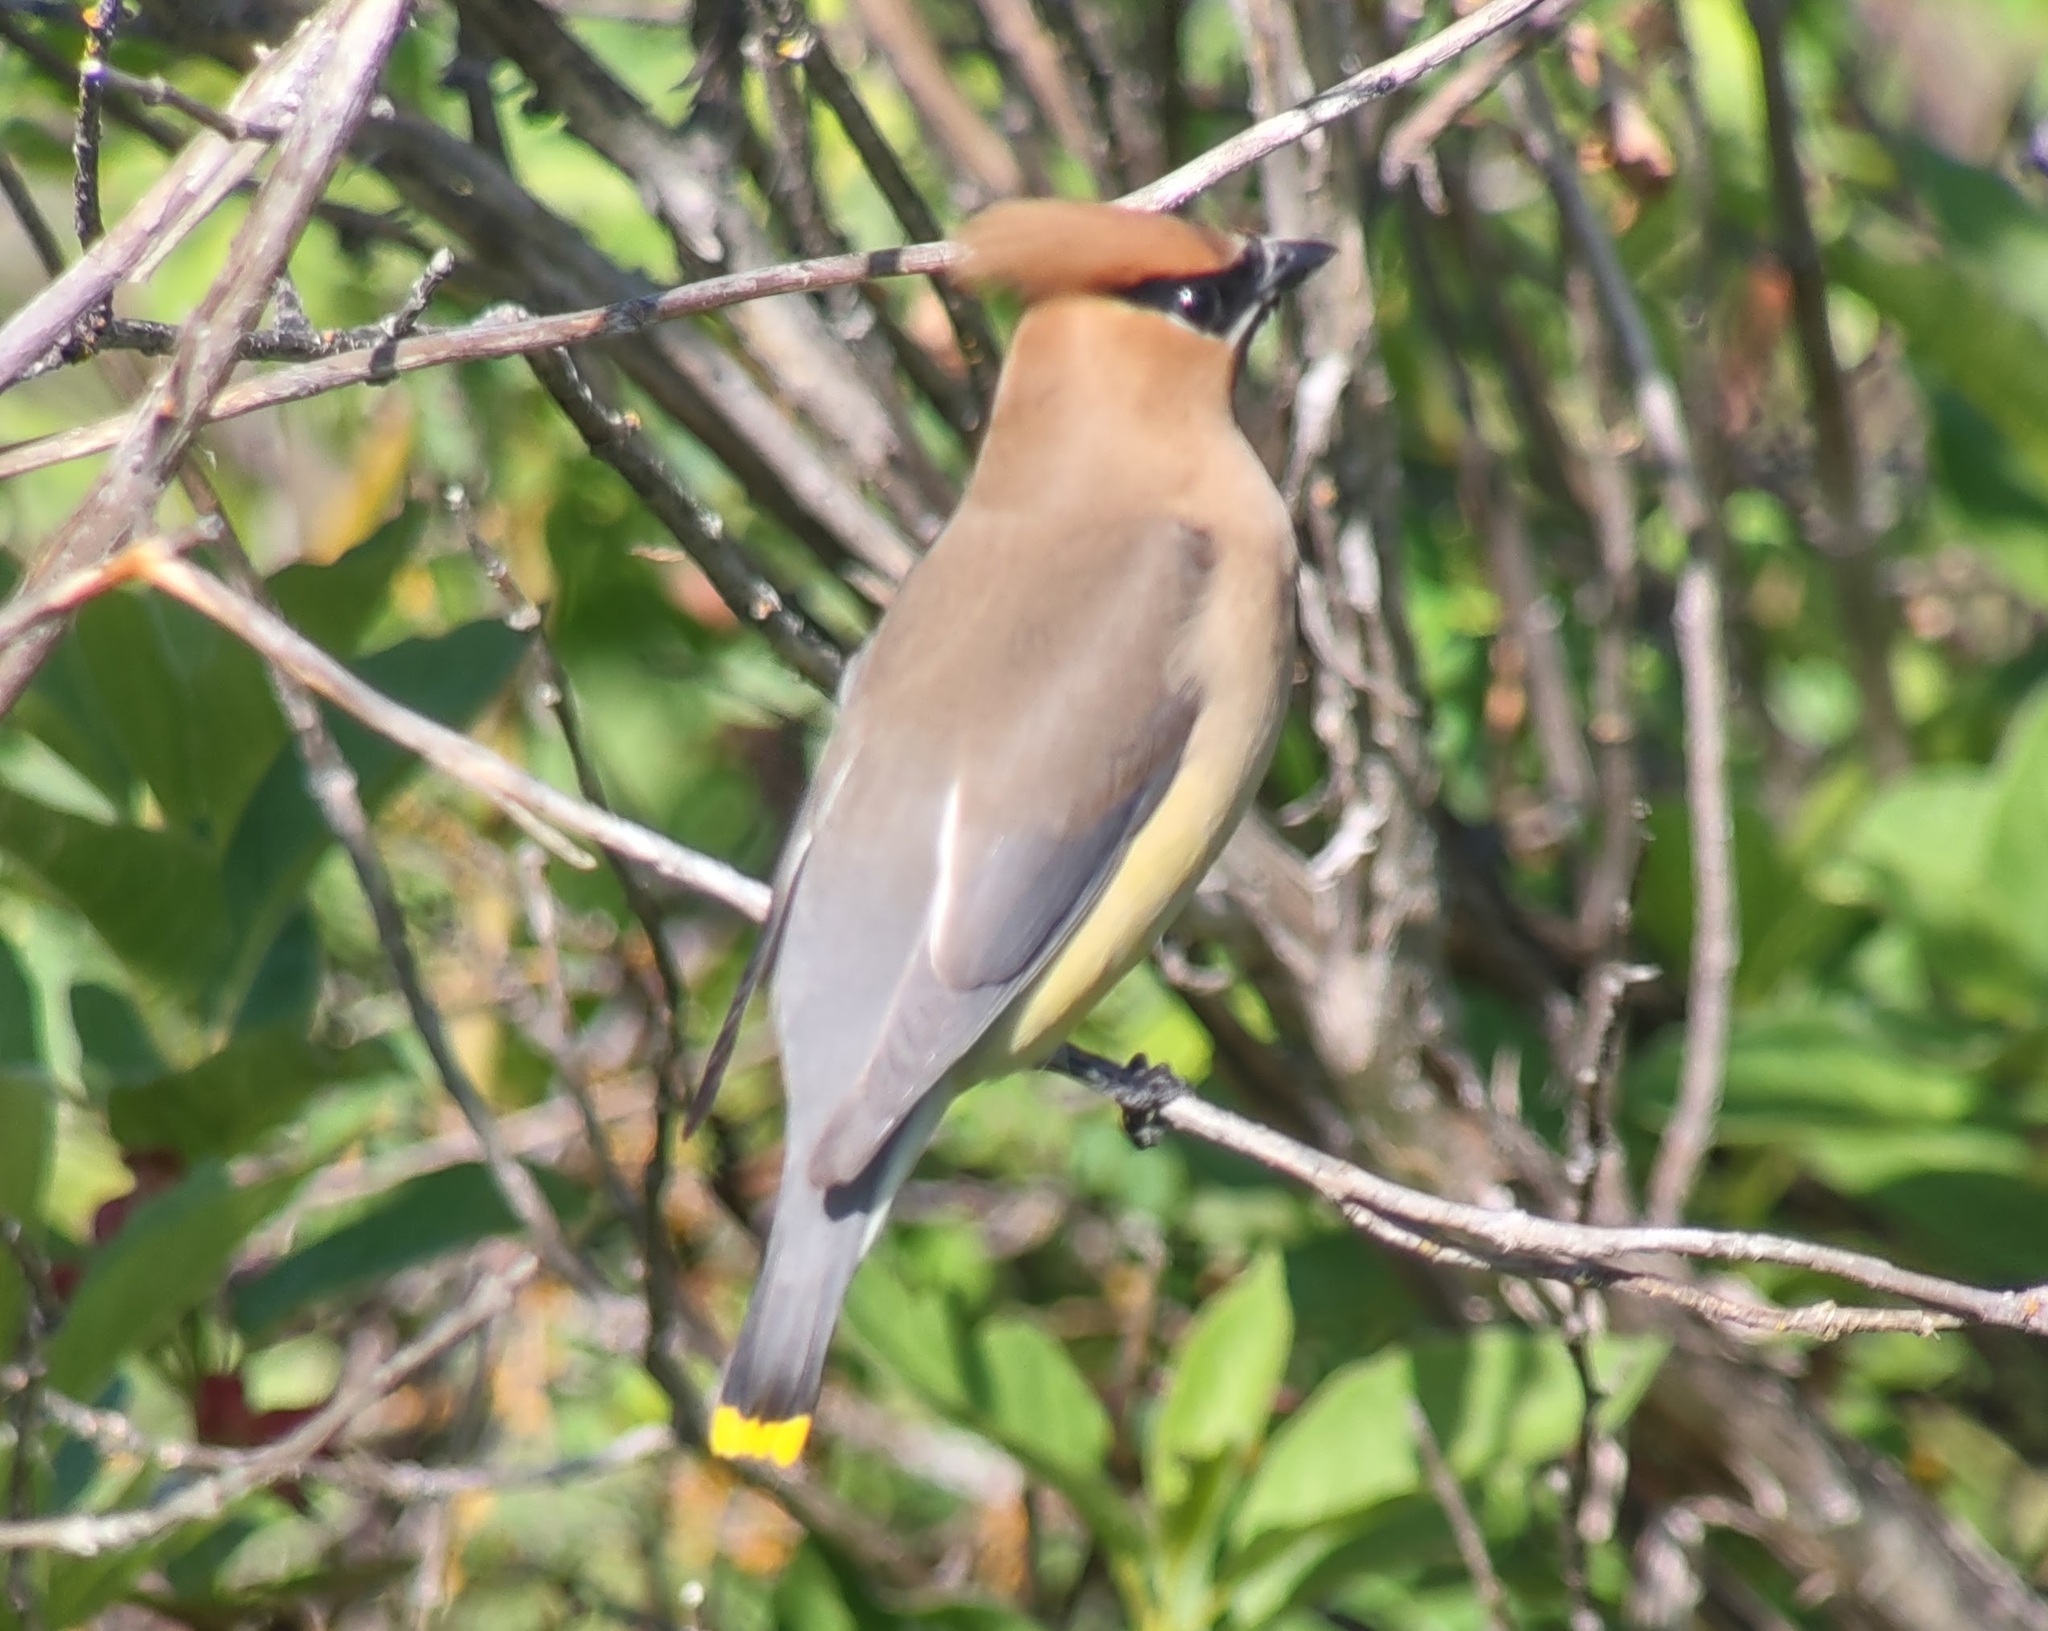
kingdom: Animalia
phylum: Chordata
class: Aves
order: Passeriformes
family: Bombycillidae
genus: Bombycilla
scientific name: Bombycilla cedrorum
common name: Cedar waxwing
